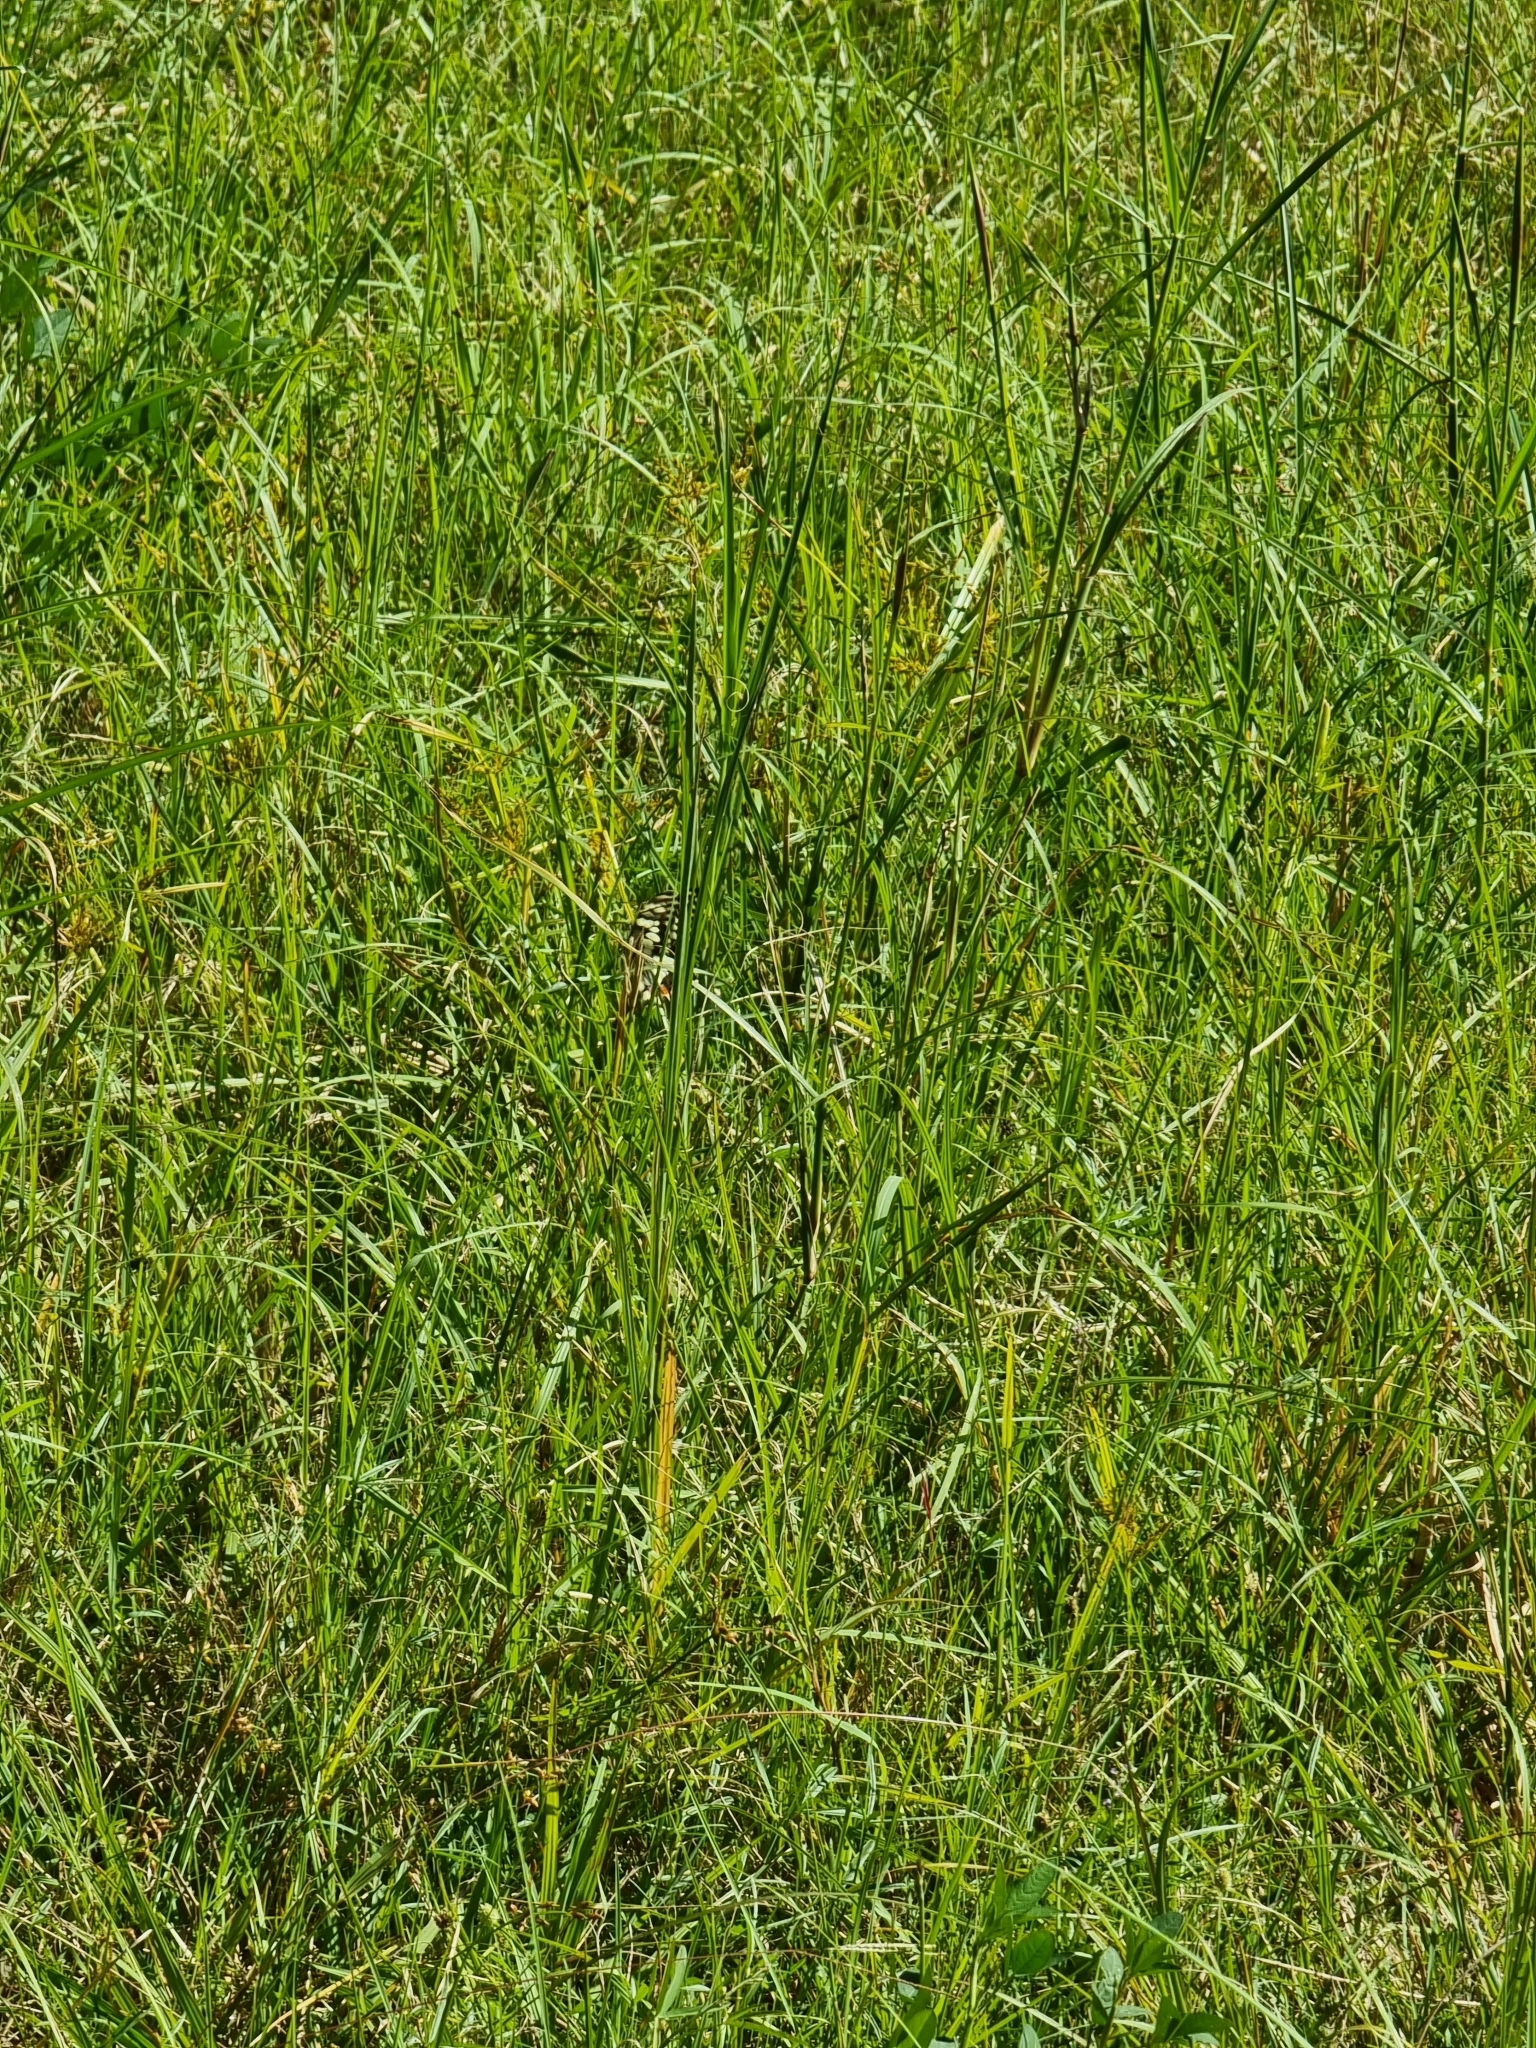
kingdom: Animalia
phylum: Arthropoda
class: Insecta
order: Lepidoptera
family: Papilionidae
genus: Papilio
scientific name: Papilio demoleus
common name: Lime butterfly
